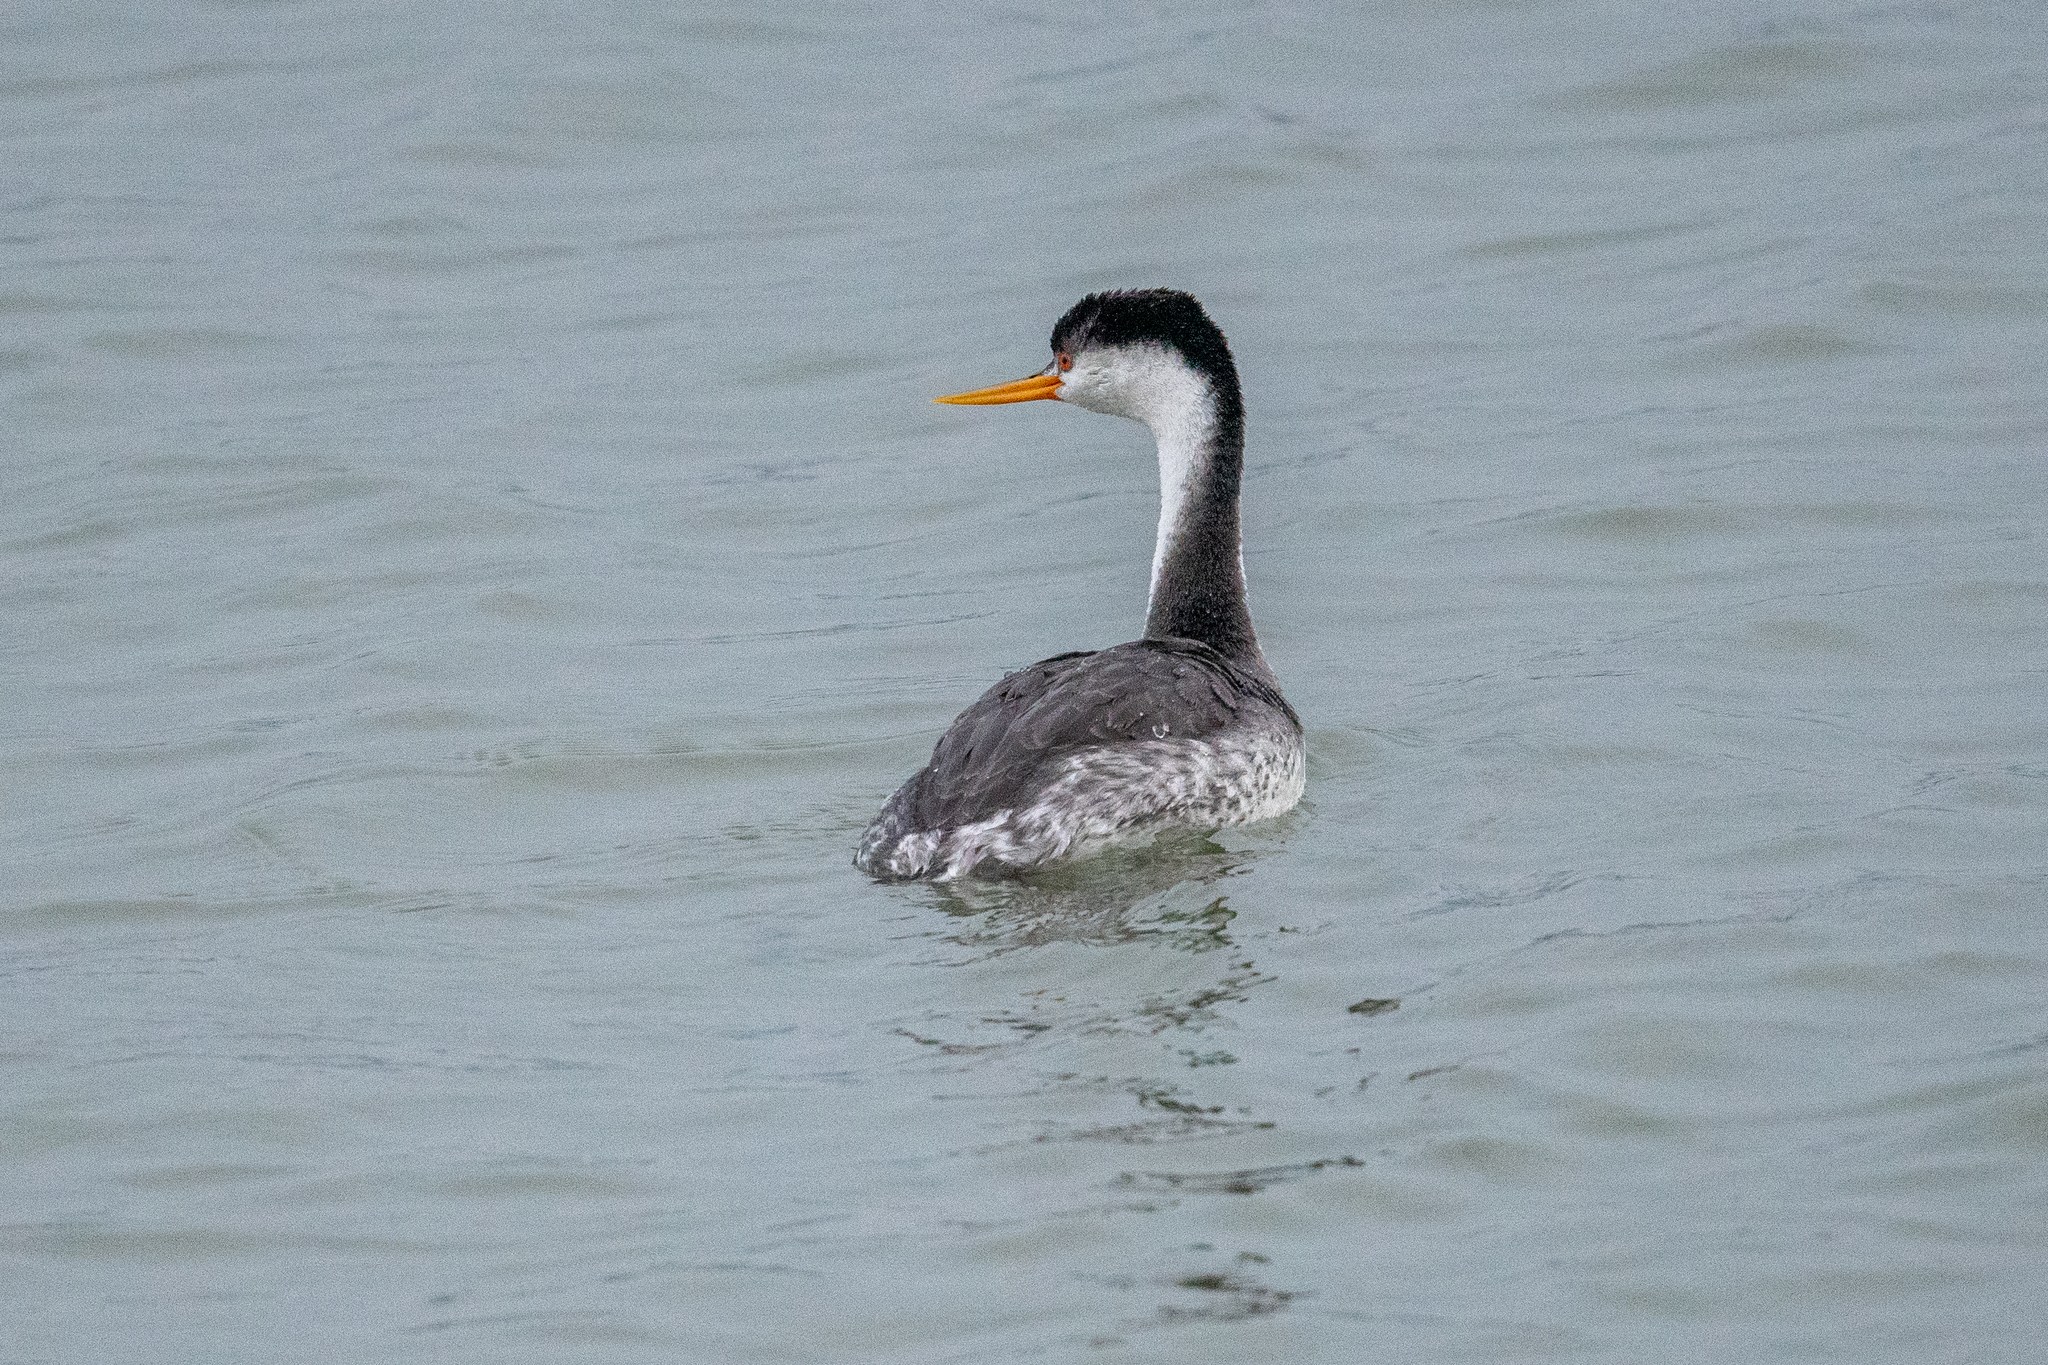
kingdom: Animalia
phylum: Chordata
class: Aves
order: Podicipediformes
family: Podicipedidae
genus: Aechmophorus
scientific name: Aechmophorus clarkii
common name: Clark's grebe
